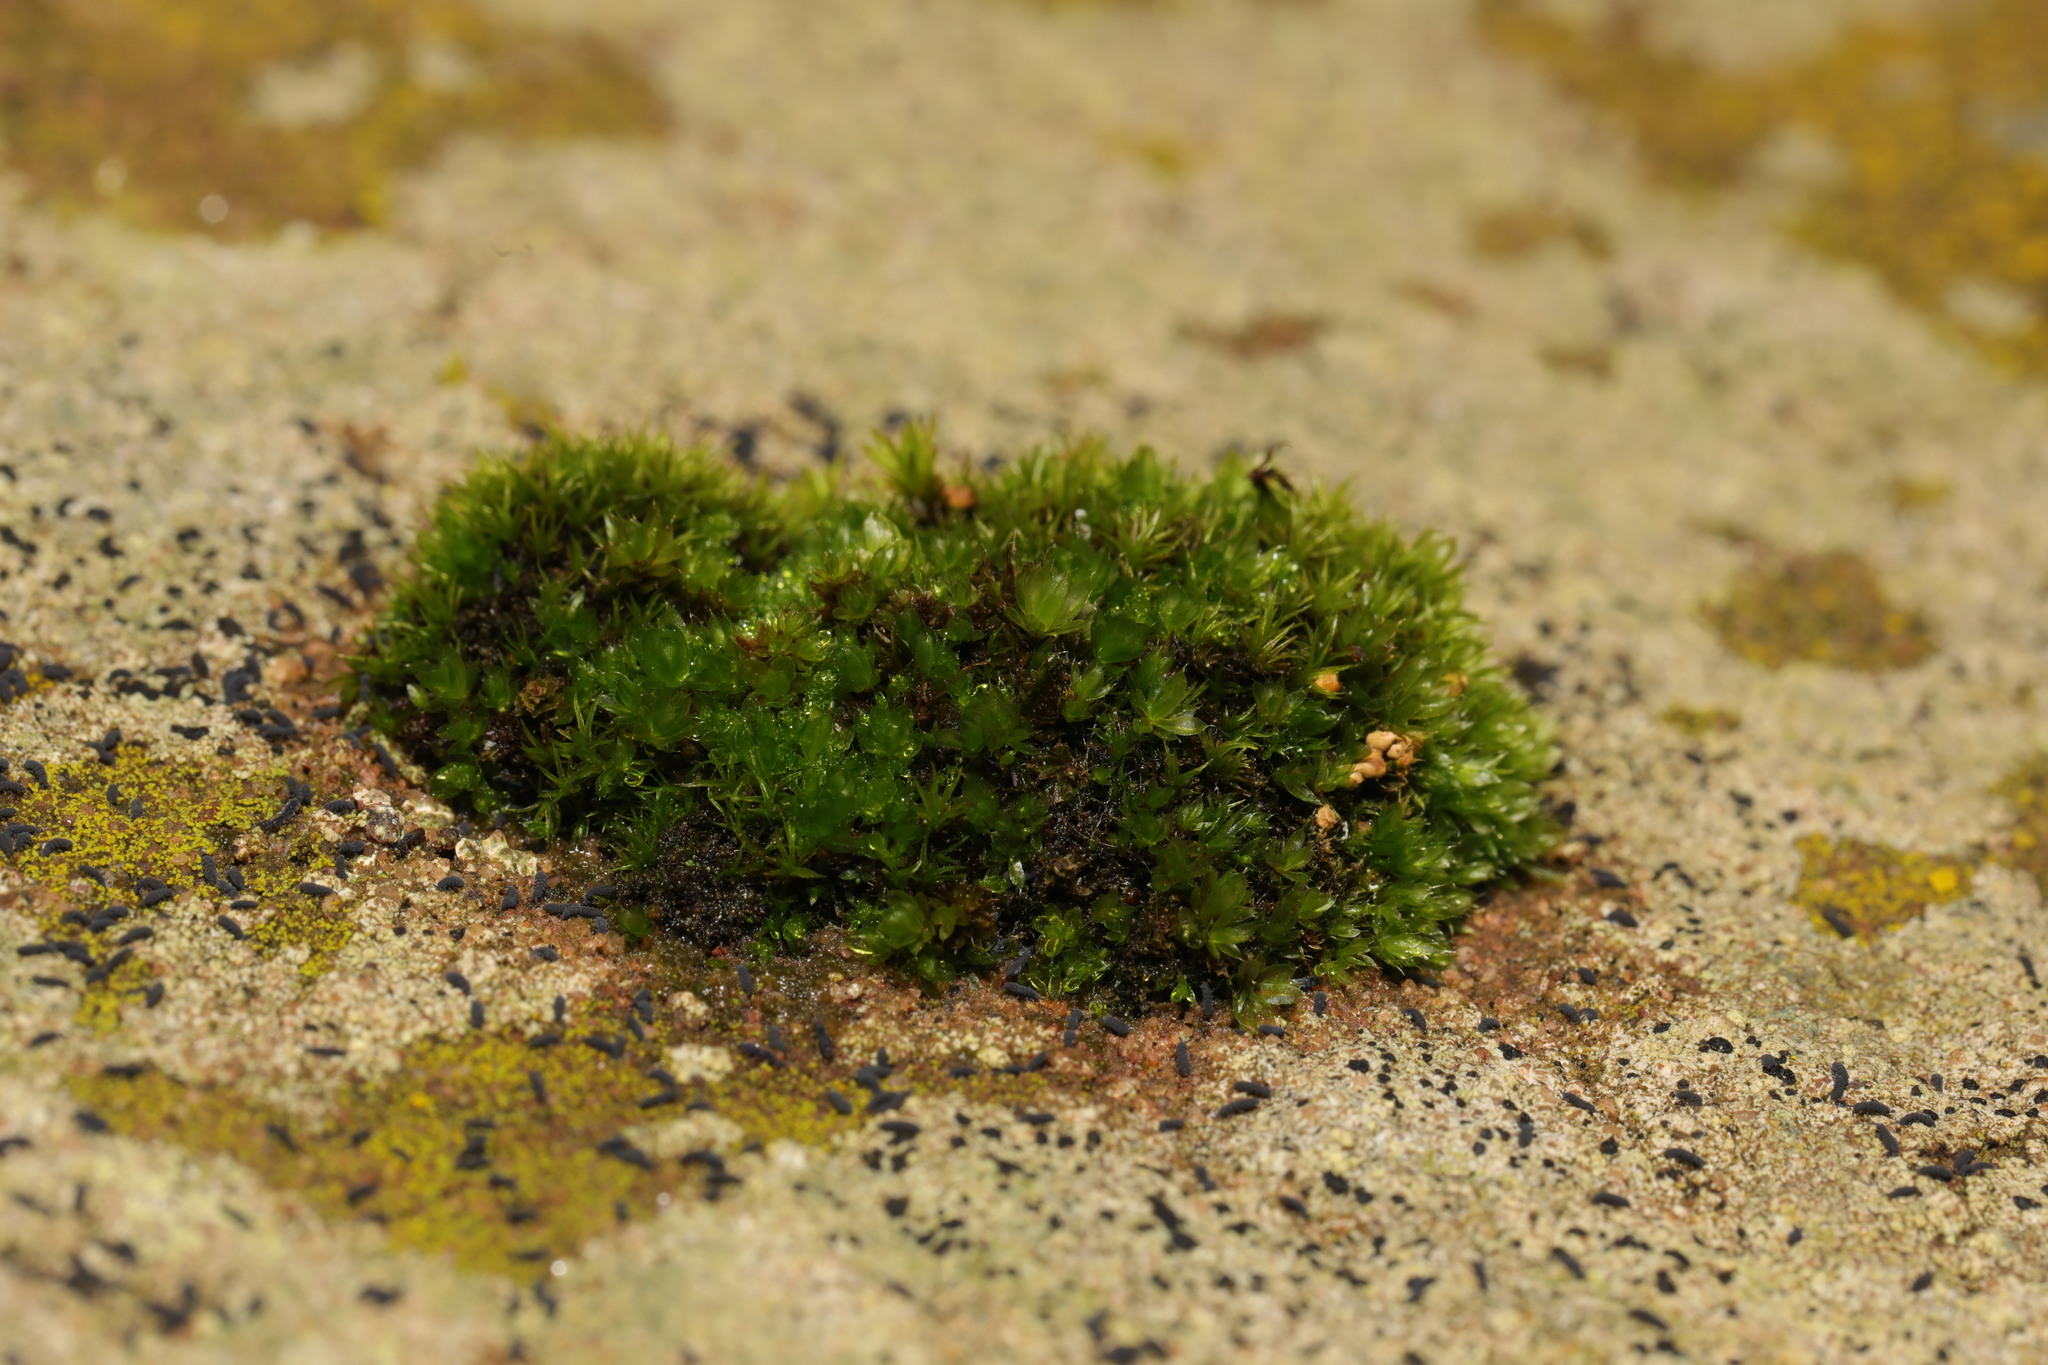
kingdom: Plantae
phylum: Bryophyta
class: Bryopsida
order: Bryales
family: Bryaceae
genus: Rosulabryum
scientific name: Rosulabryum capillare
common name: Capillary thread-moss
